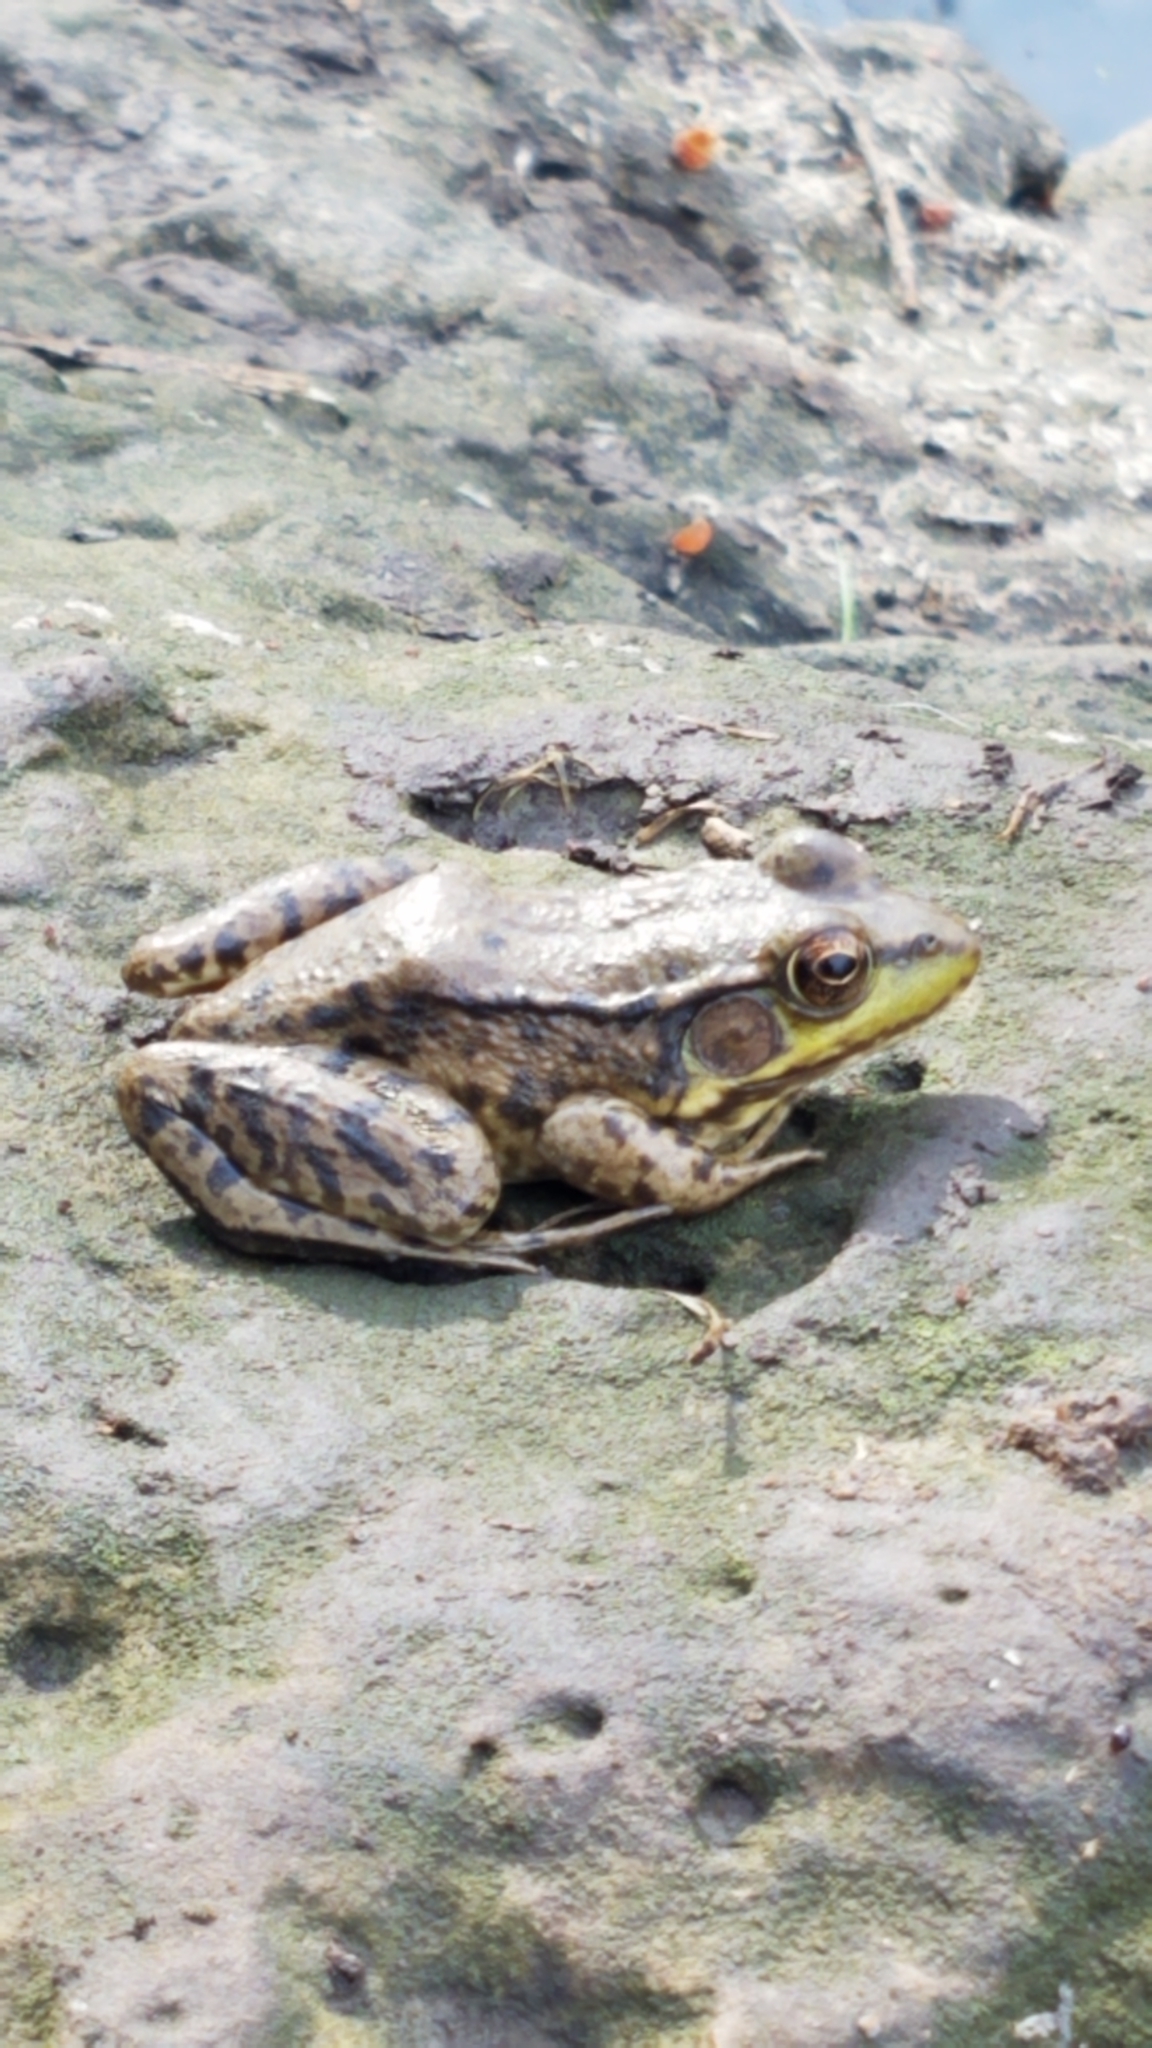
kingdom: Animalia
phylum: Chordata
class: Amphibia
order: Anura
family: Ranidae
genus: Lithobates
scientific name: Lithobates clamitans
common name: Green frog
